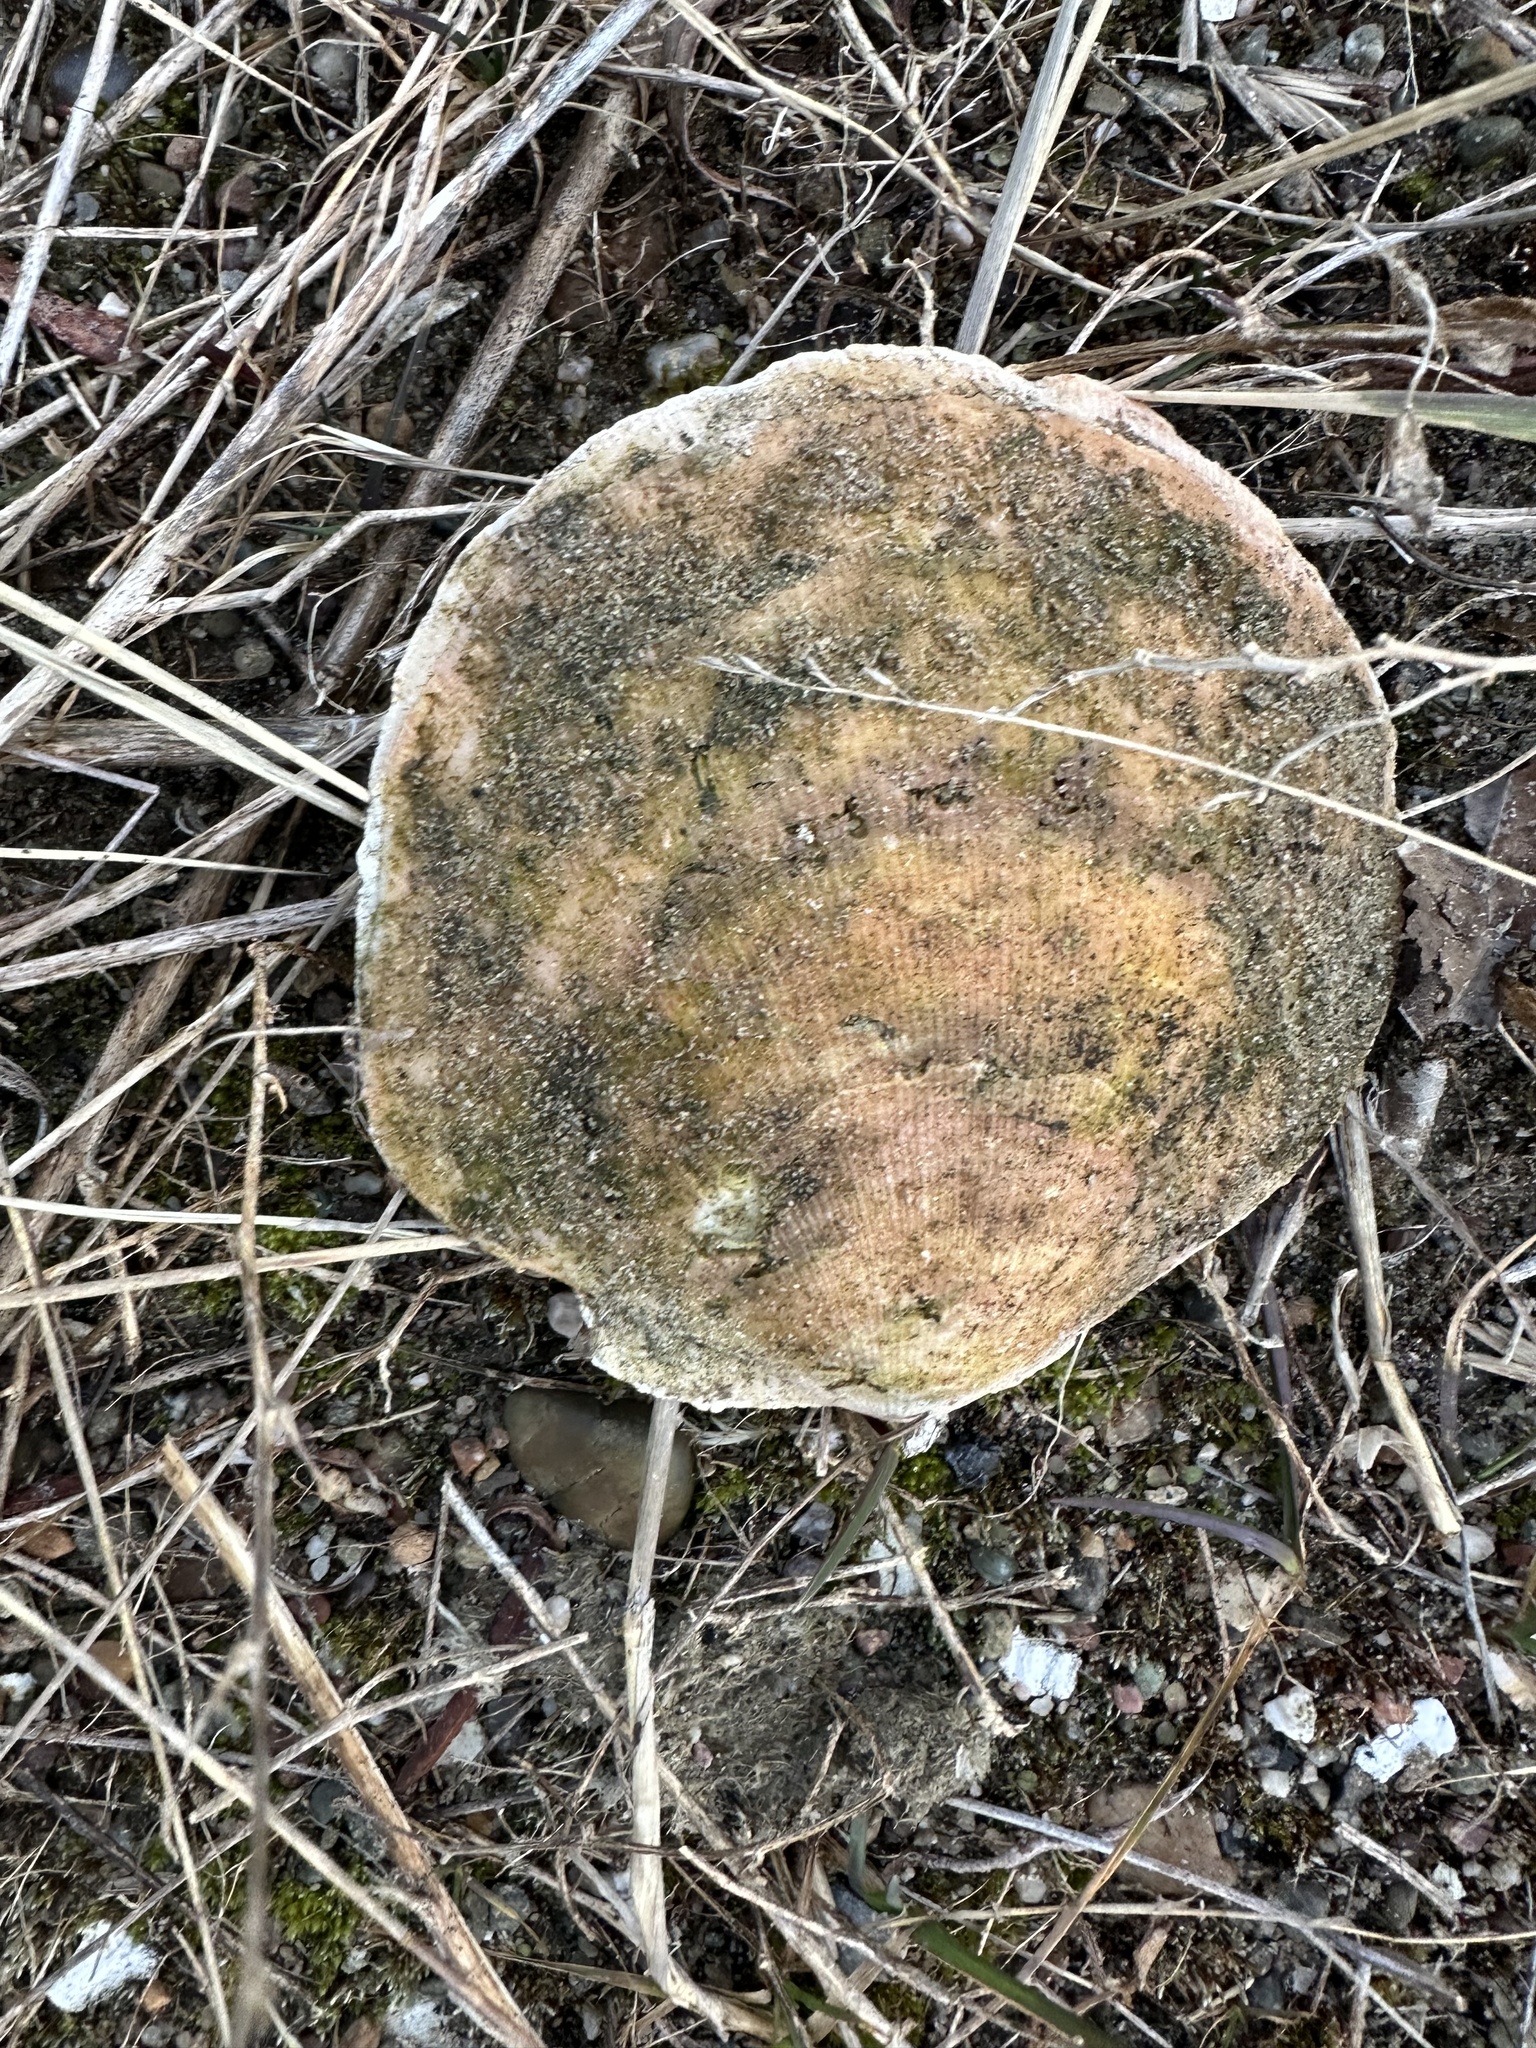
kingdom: Animalia
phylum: Mollusca
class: Bivalvia
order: Pectinida
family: Pectinidae
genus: Placopecten
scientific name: Placopecten magellanicus
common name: American sea scallop
